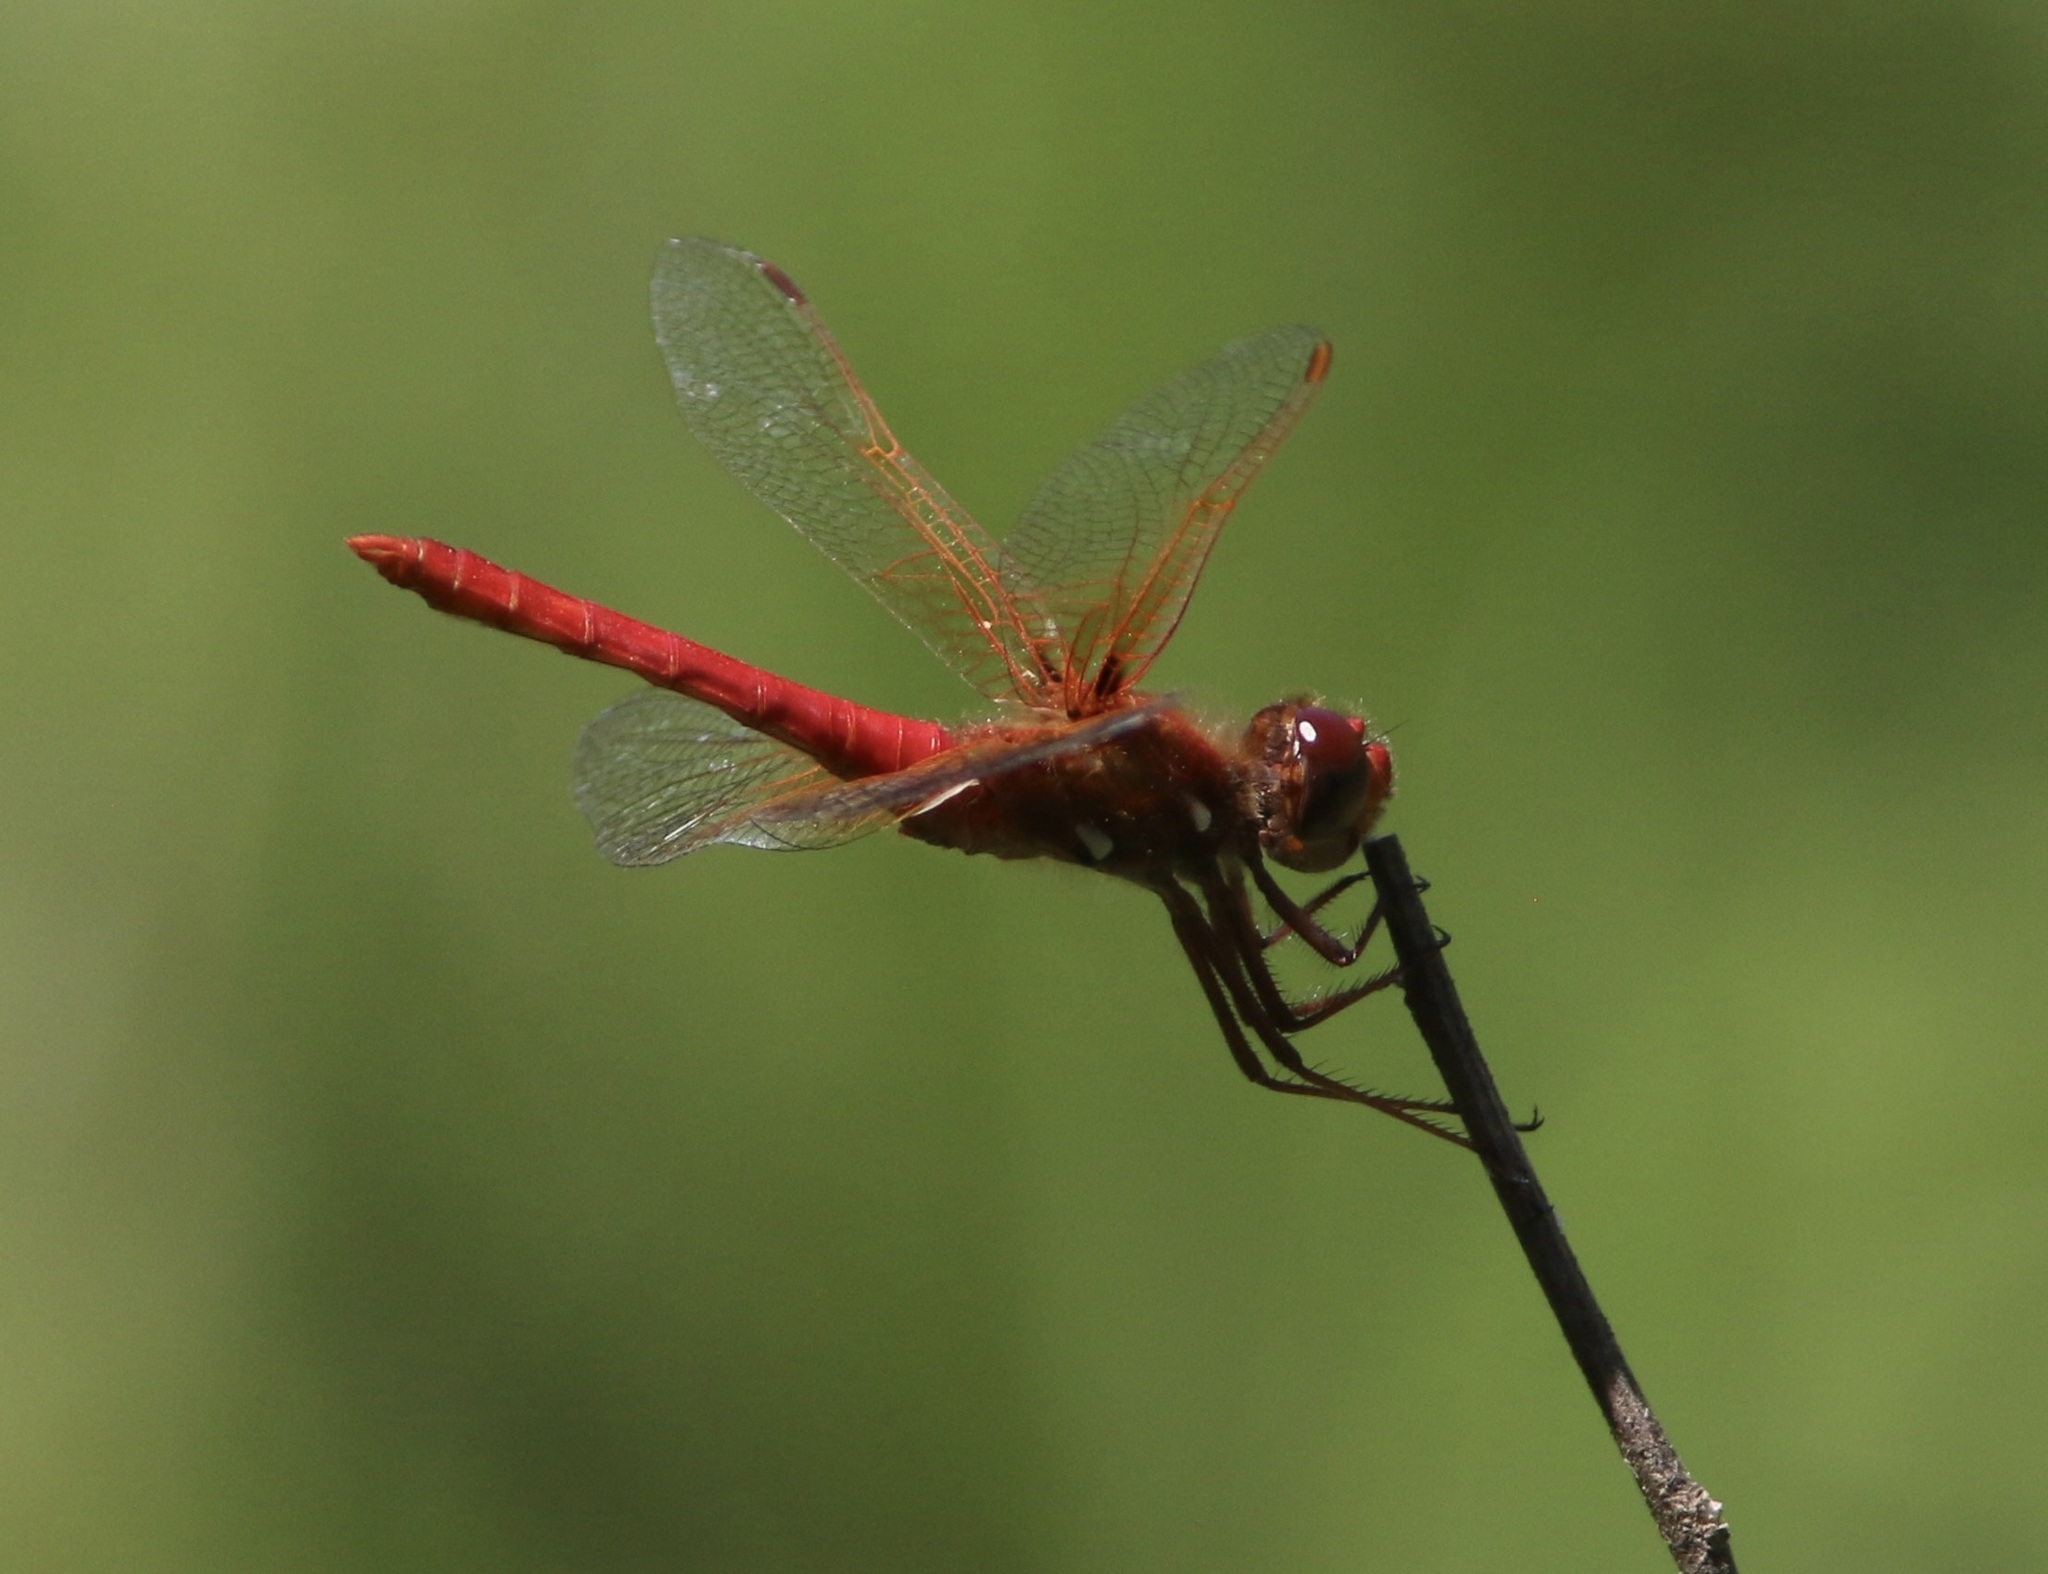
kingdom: Animalia
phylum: Arthropoda
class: Insecta
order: Lepidoptera
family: Nymphalidae
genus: Chlosyne
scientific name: Chlosyne palla
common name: Northern checkerspot
